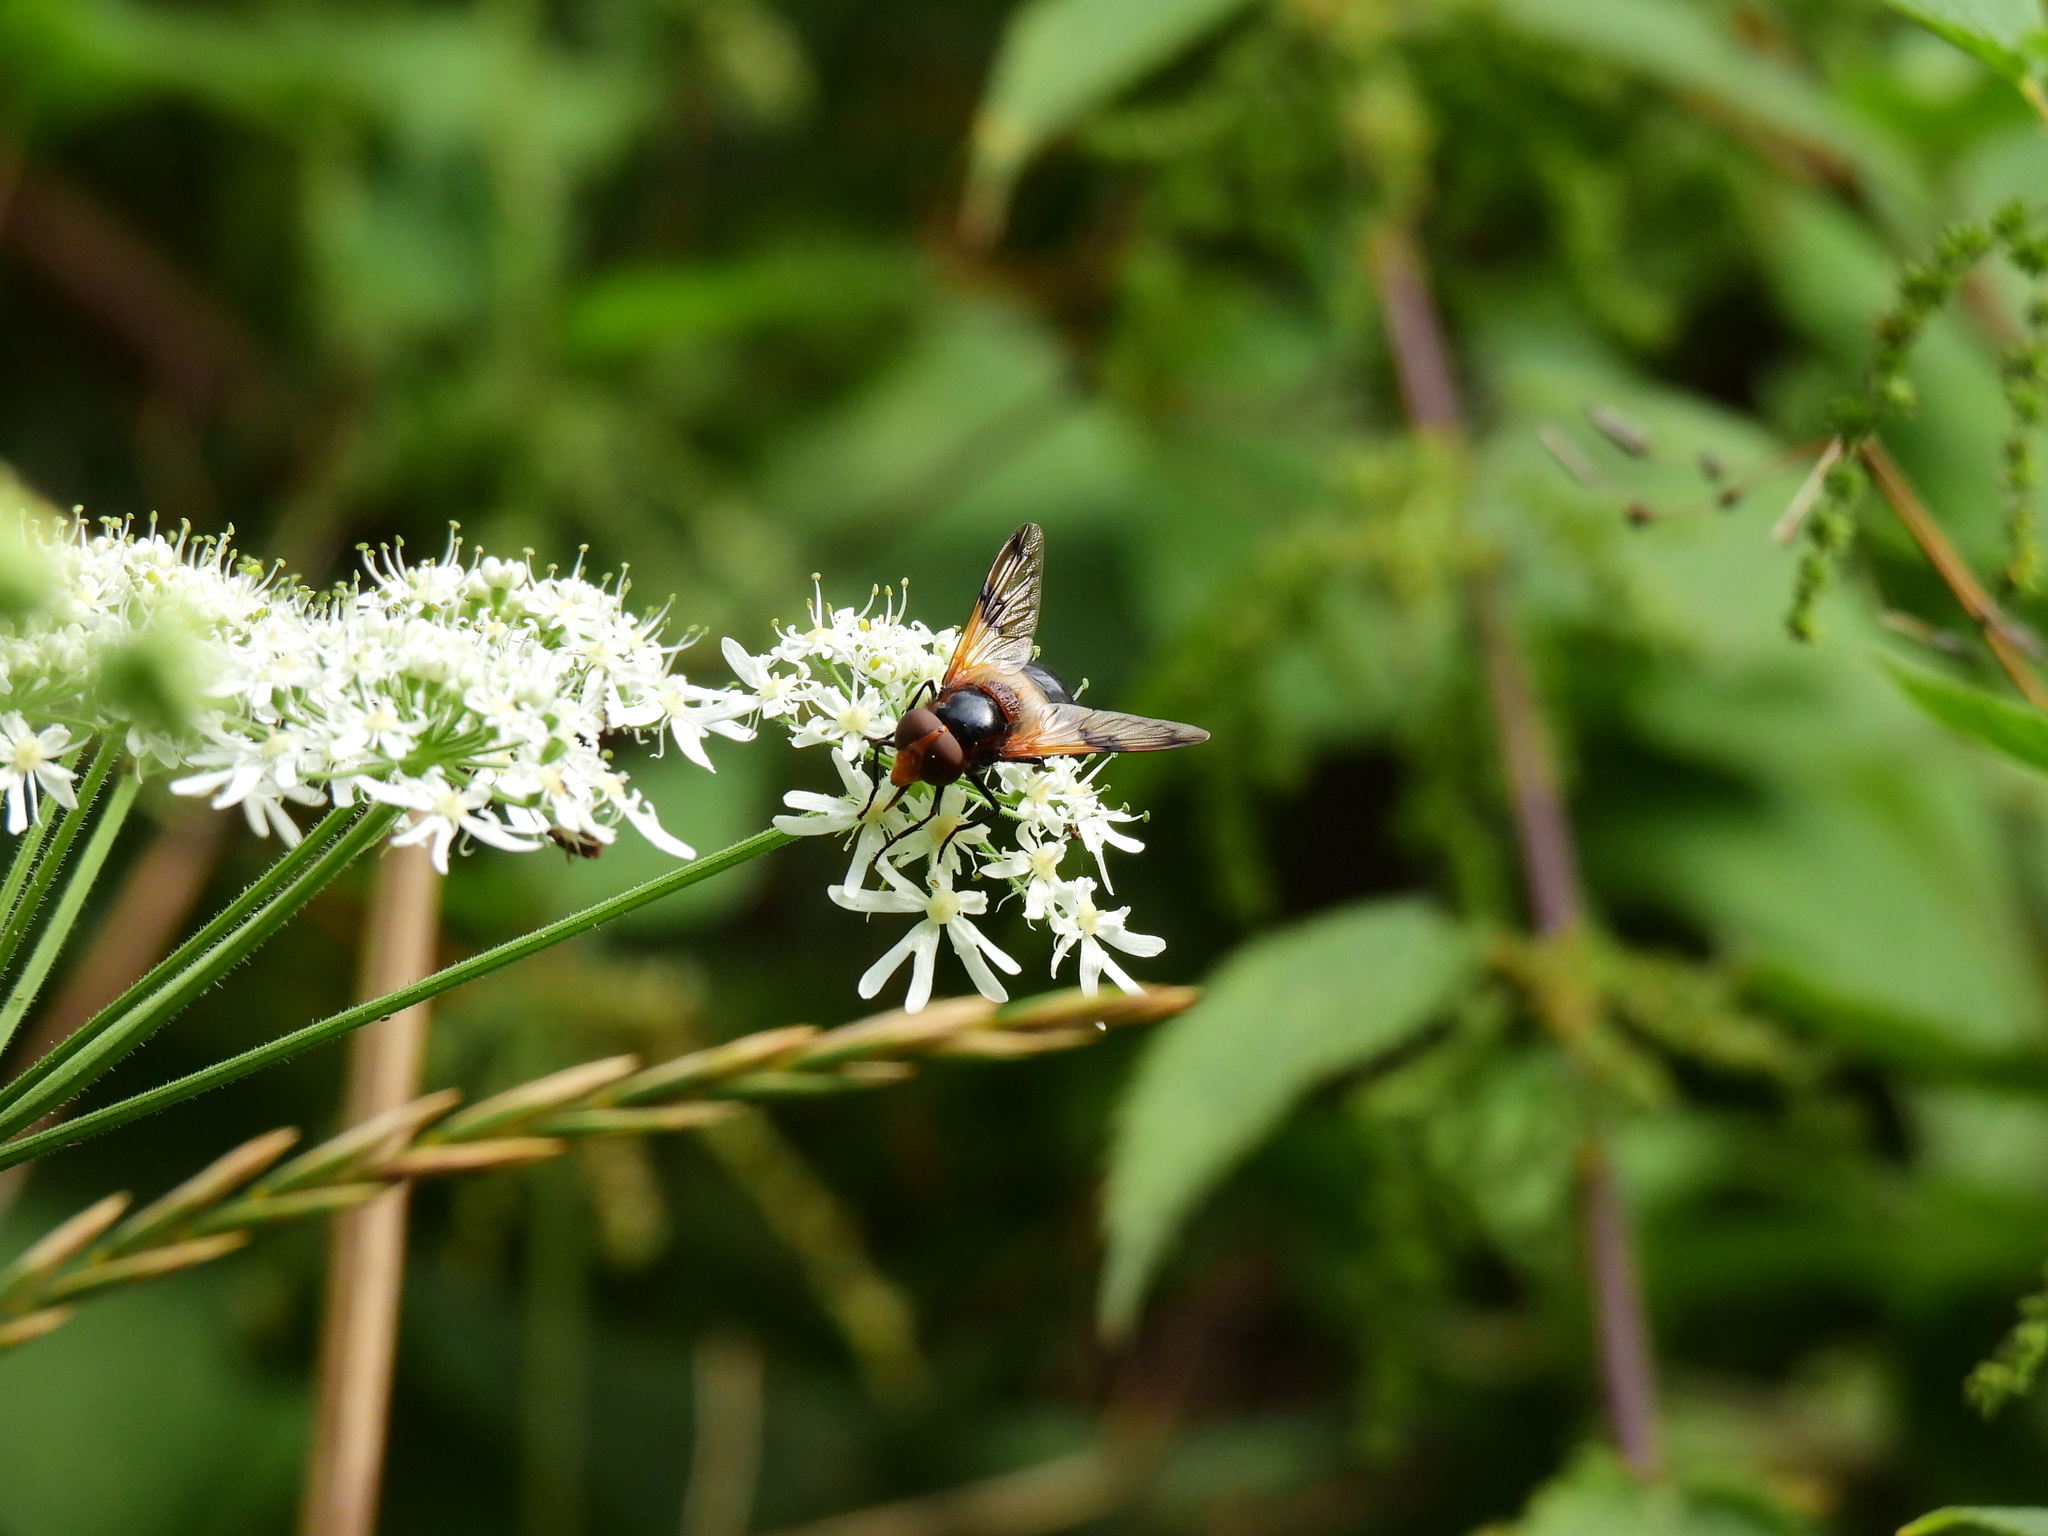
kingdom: Animalia
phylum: Arthropoda
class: Insecta
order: Diptera
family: Syrphidae
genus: Volucella
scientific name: Volucella pellucens
